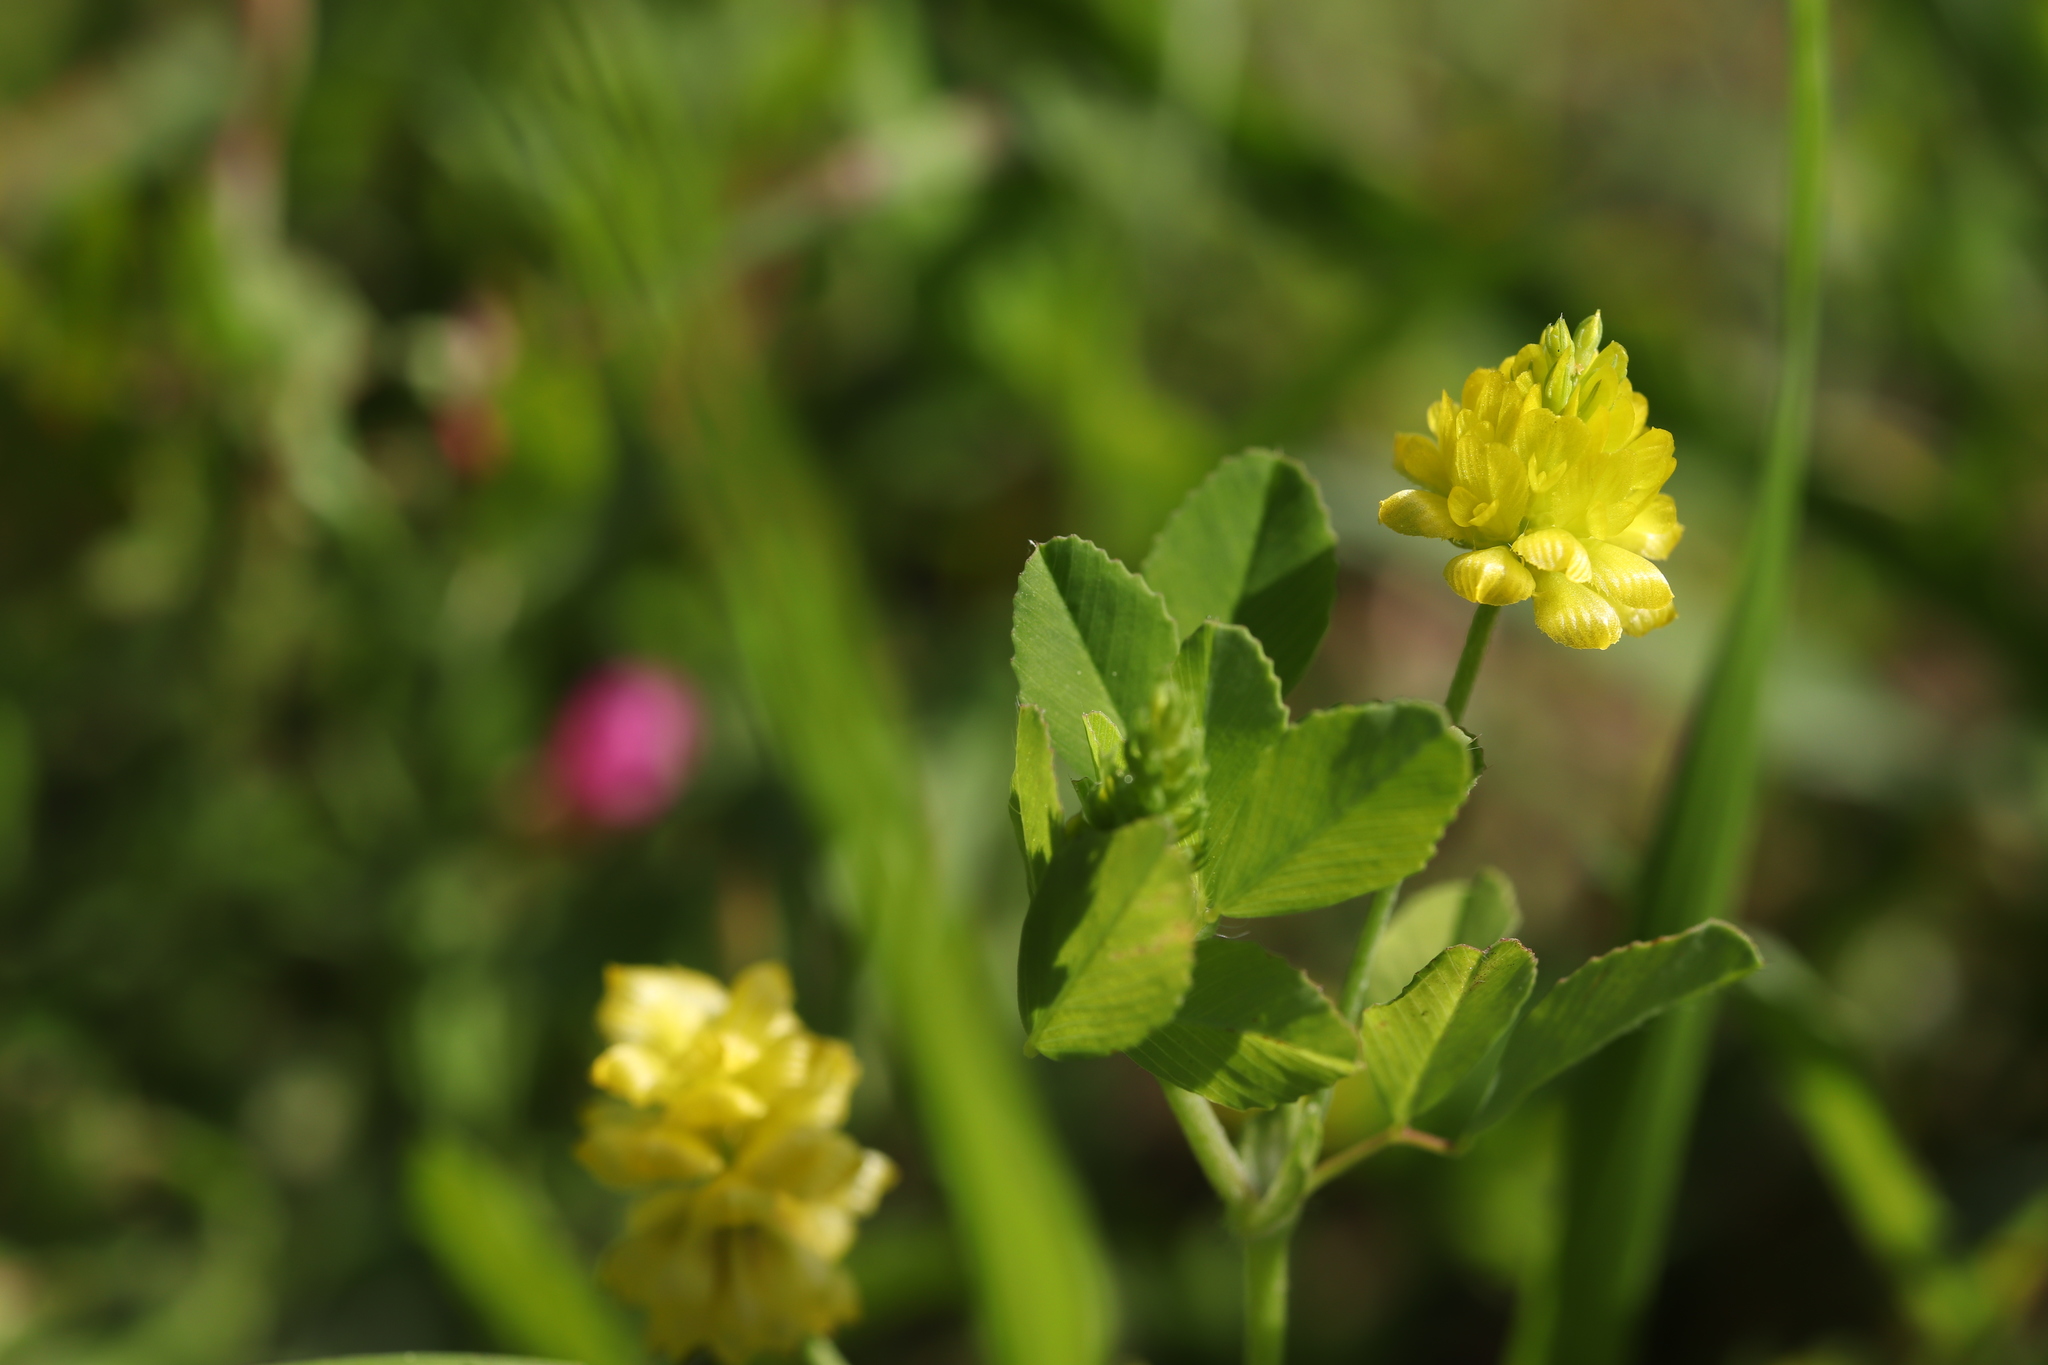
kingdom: Plantae
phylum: Tracheophyta
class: Magnoliopsida
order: Fabales
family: Fabaceae
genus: Trifolium
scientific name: Trifolium campestre
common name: Field clover
